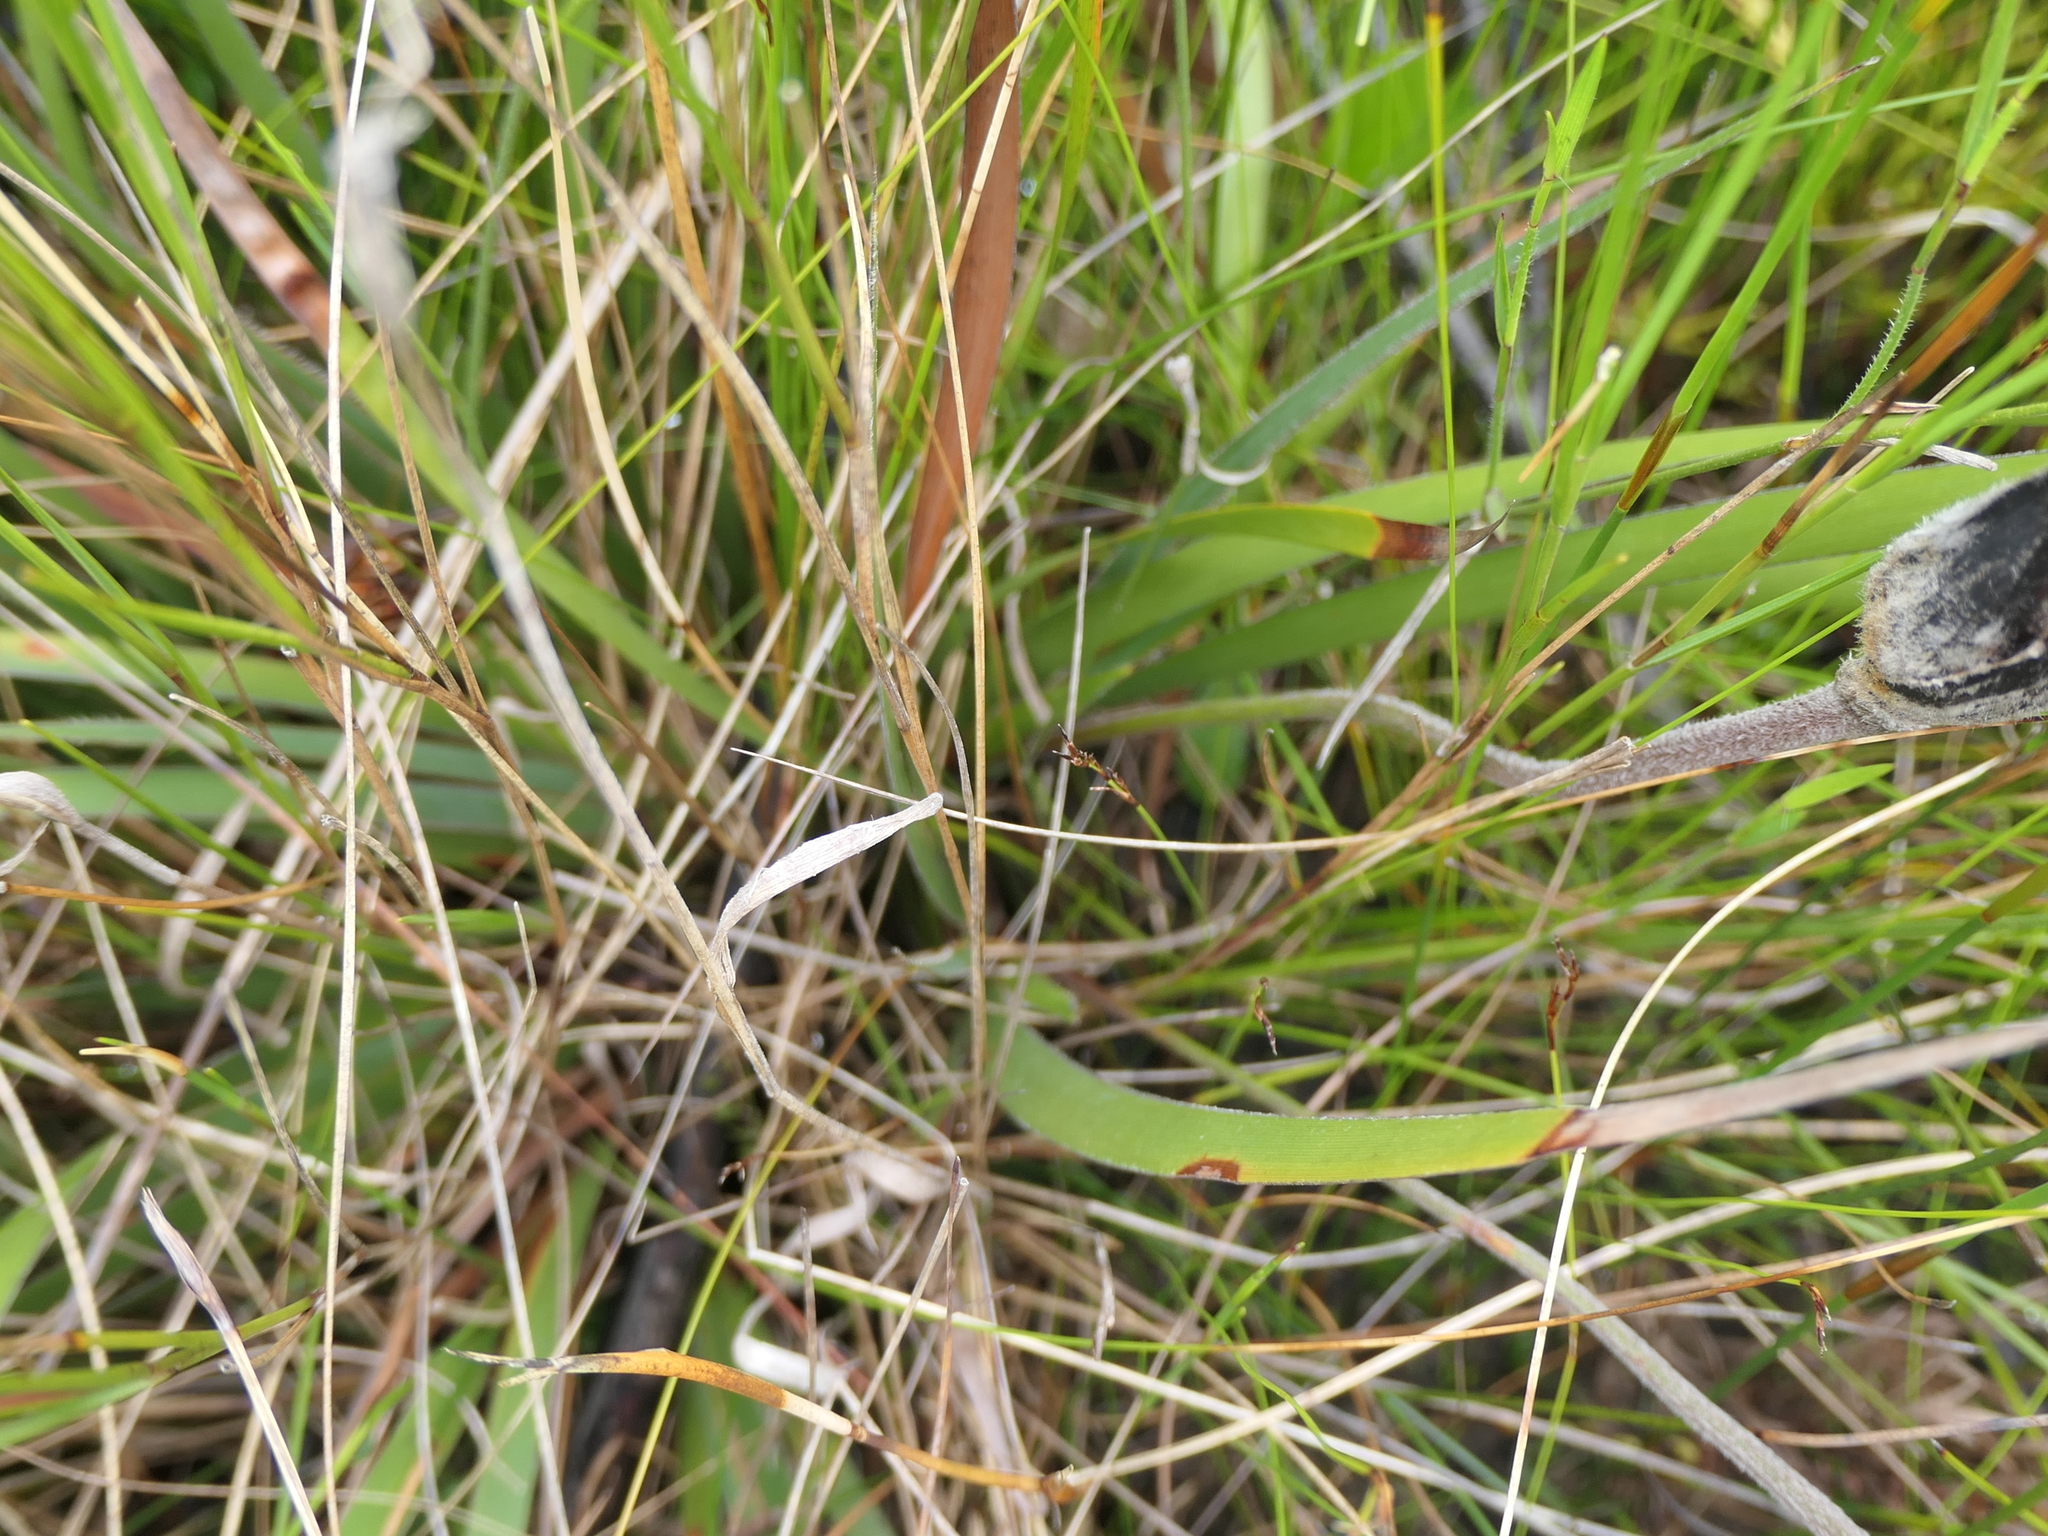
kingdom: Plantae
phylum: Tracheophyta
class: Liliopsida
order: Asparagales
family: Iridaceae
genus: Patersonia
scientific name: Patersonia sericea
